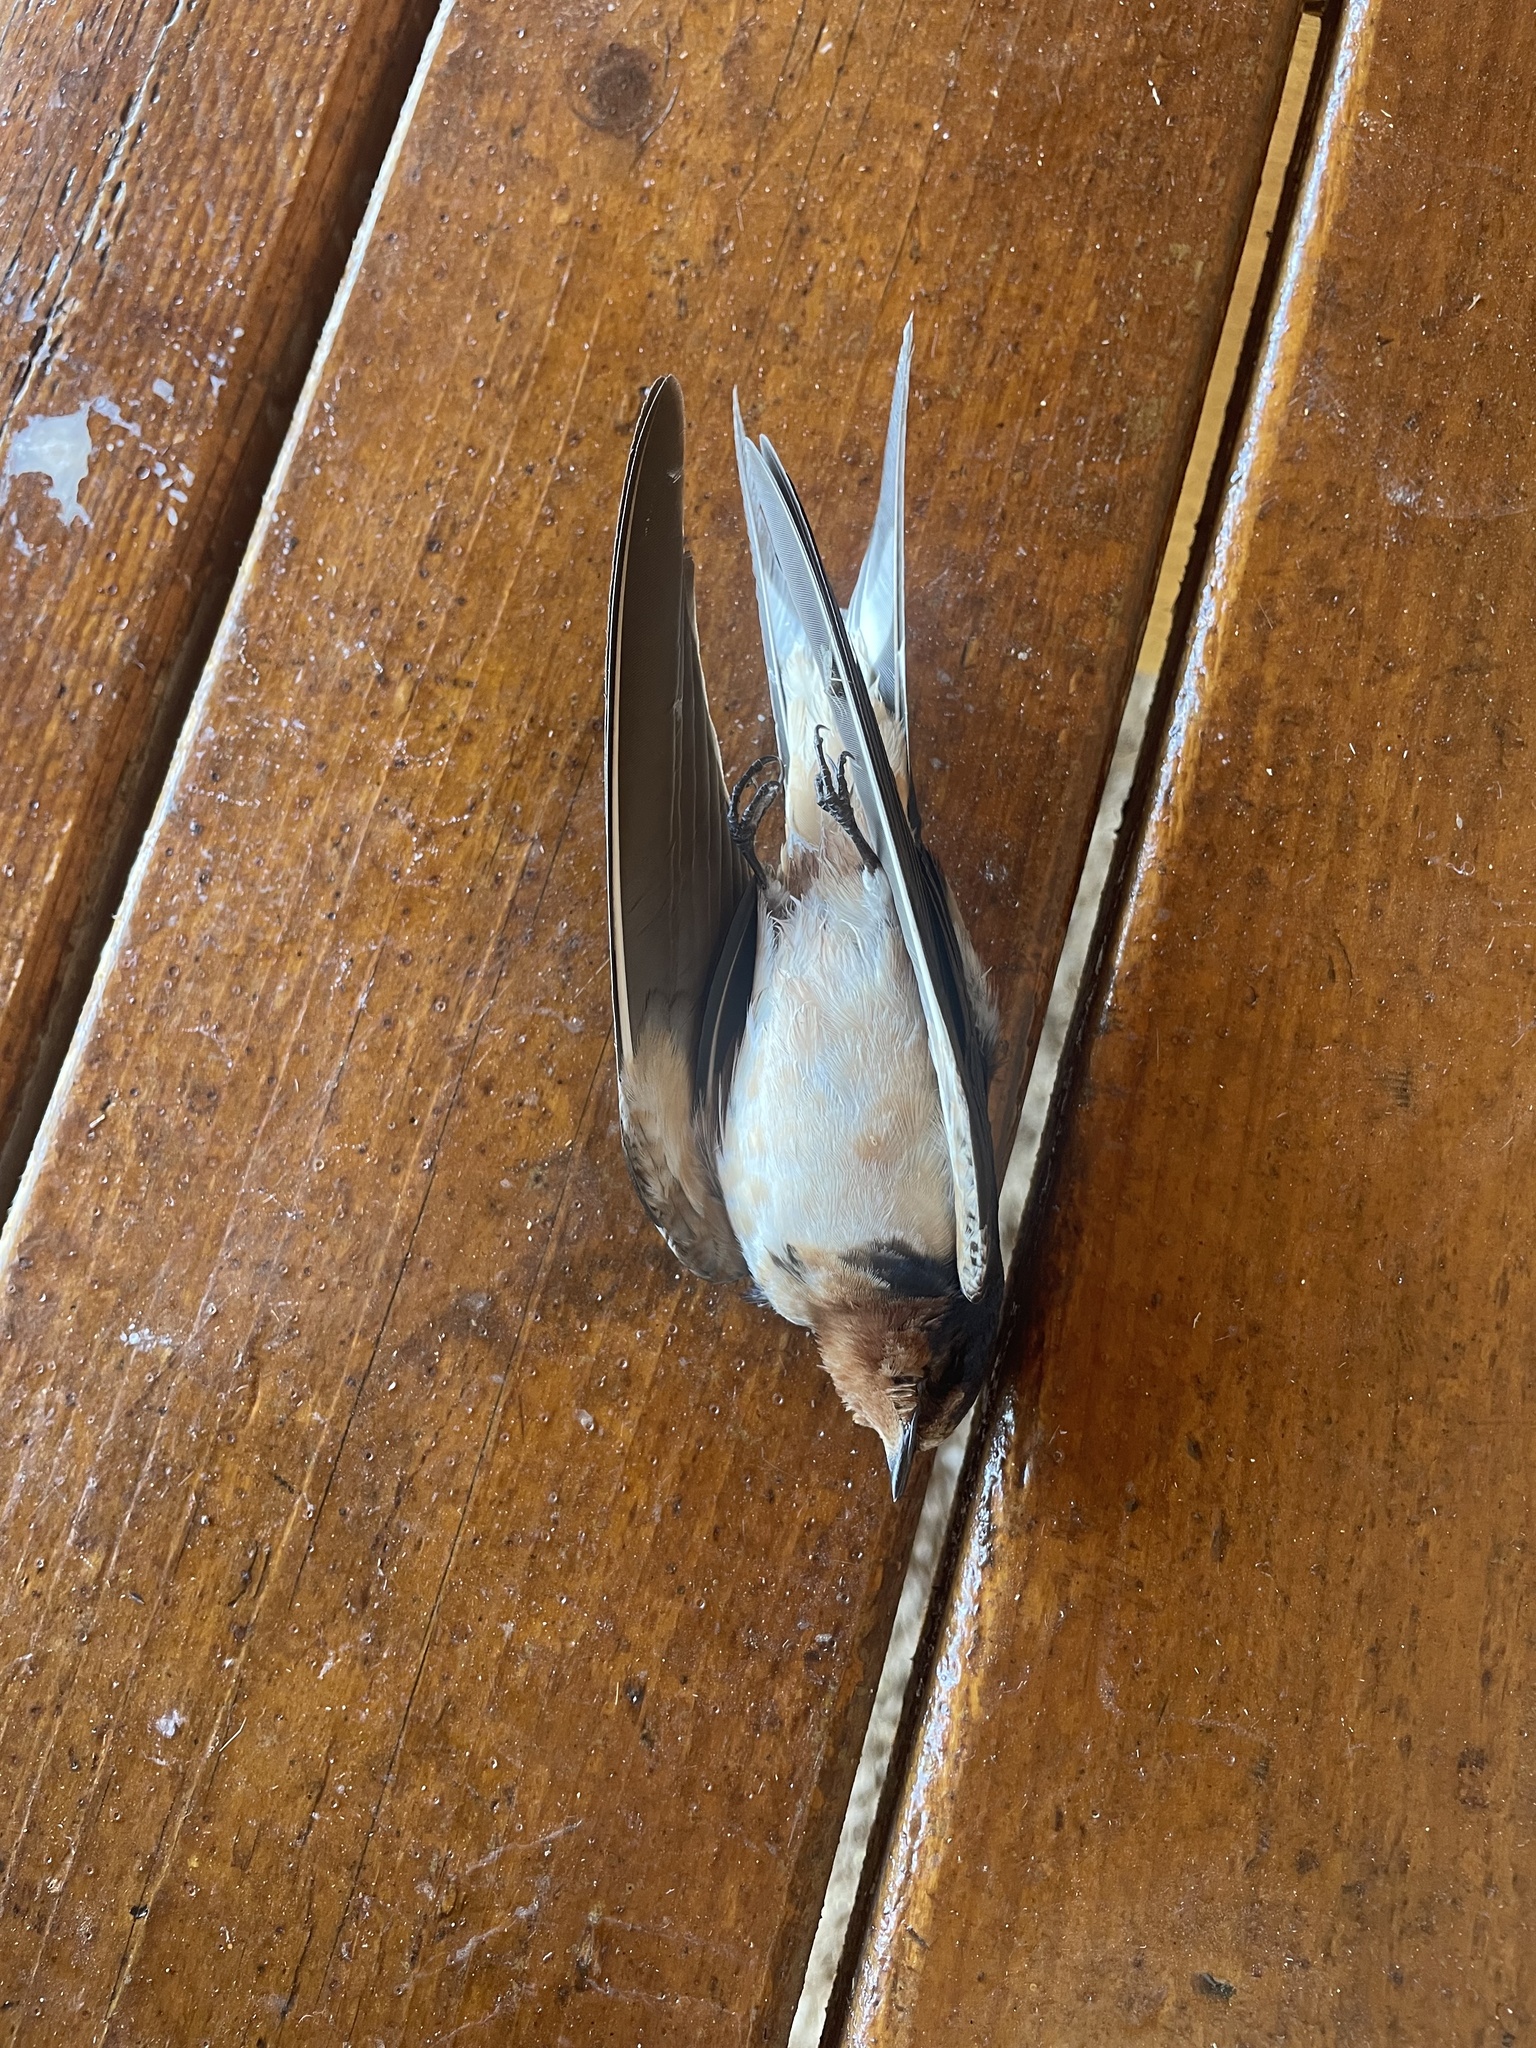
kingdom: Animalia
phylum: Chordata
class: Aves
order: Passeriformes
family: Hirundinidae
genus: Hirundo
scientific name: Hirundo rustica
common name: Barn swallow
